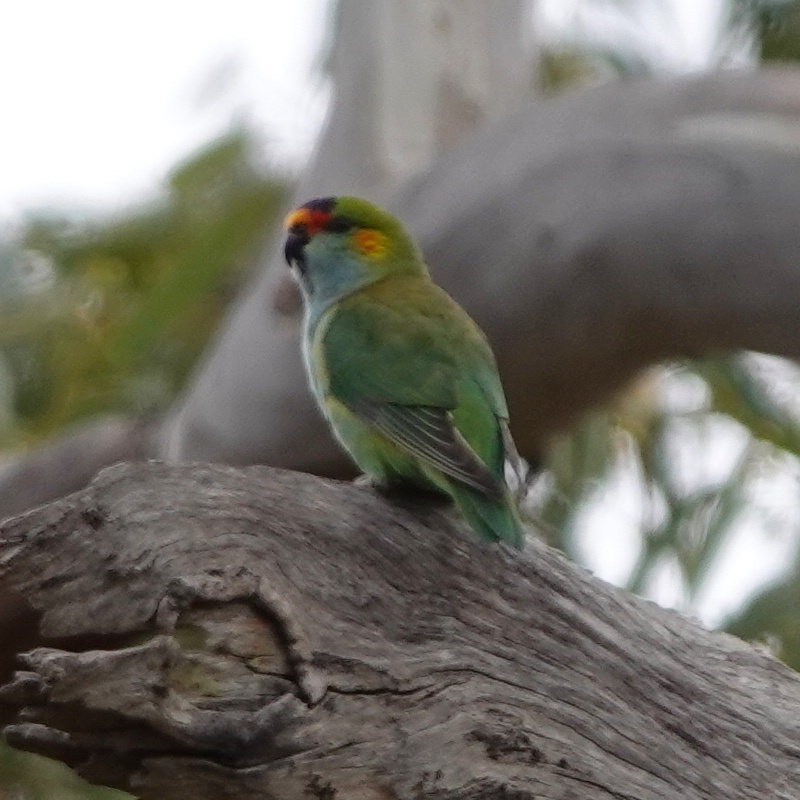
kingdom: Animalia
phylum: Chordata
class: Aves
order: Psittaciformes
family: Psittaculidae
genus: Parvipsitta
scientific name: Parvipsitta porphyrocephala
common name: Purple-crowned lorikeet
